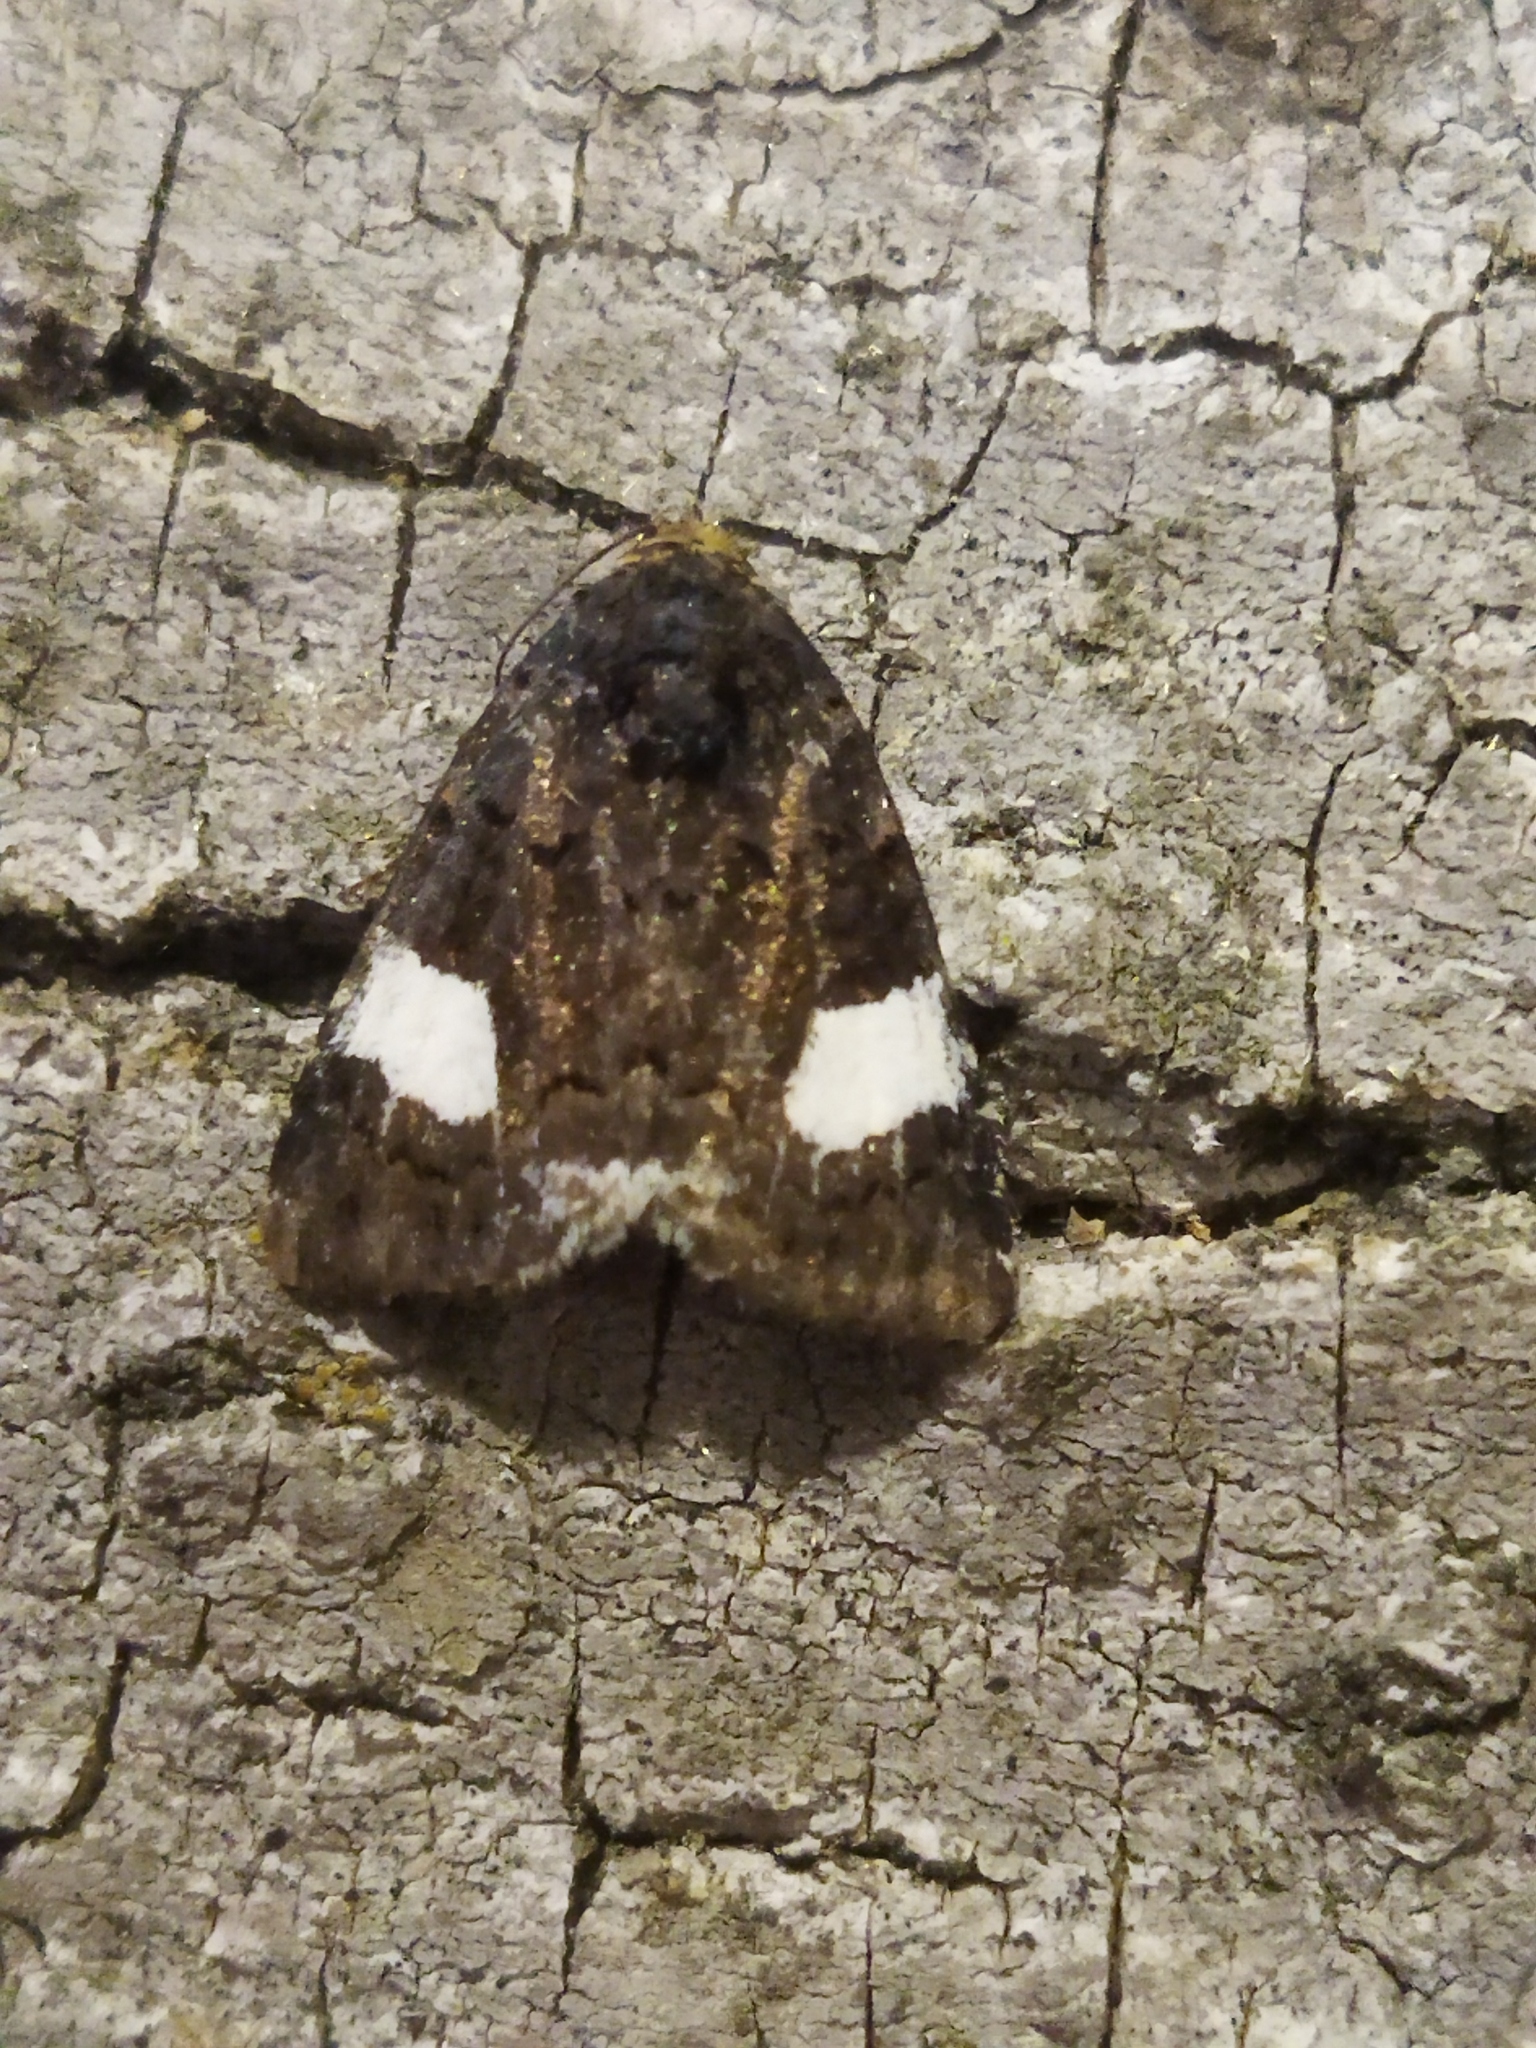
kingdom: Animalia
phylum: Arthropoda
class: Insecta
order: Lepidoptera
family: Erebidae
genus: Tyta
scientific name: Tyta luctuosa
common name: Four-spotted
